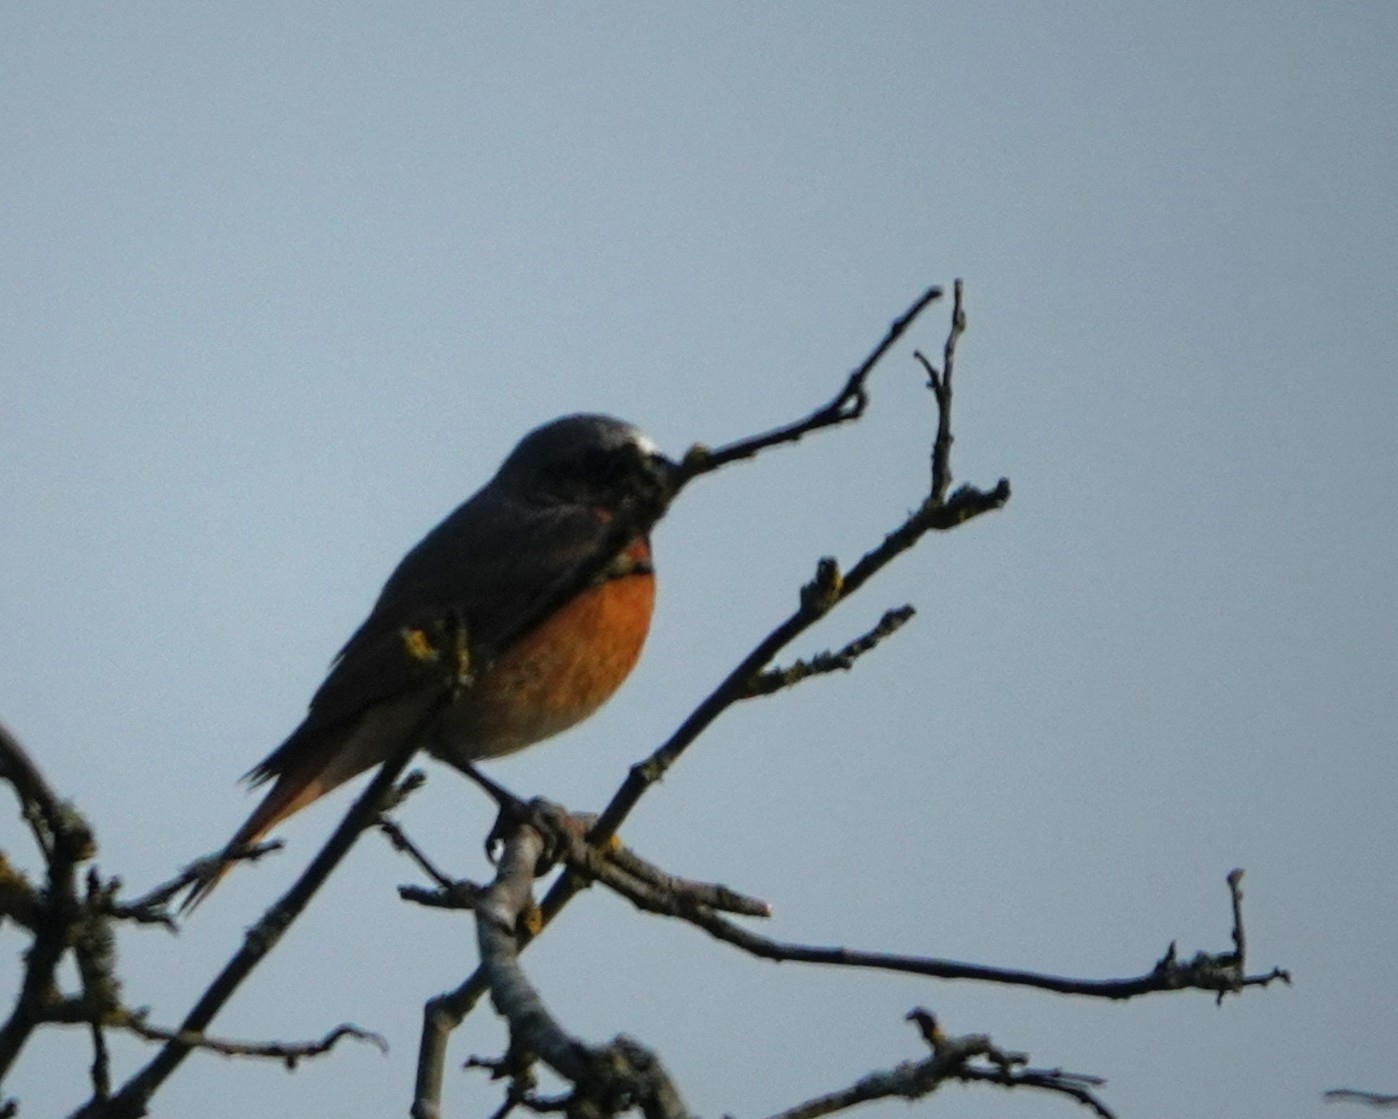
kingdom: Animalia
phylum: Chordata
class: Aves
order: Passeriformes
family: Muscicapidae
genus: Phoenicurus
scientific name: Phoenicurus phoenicurus
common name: Common redstart
